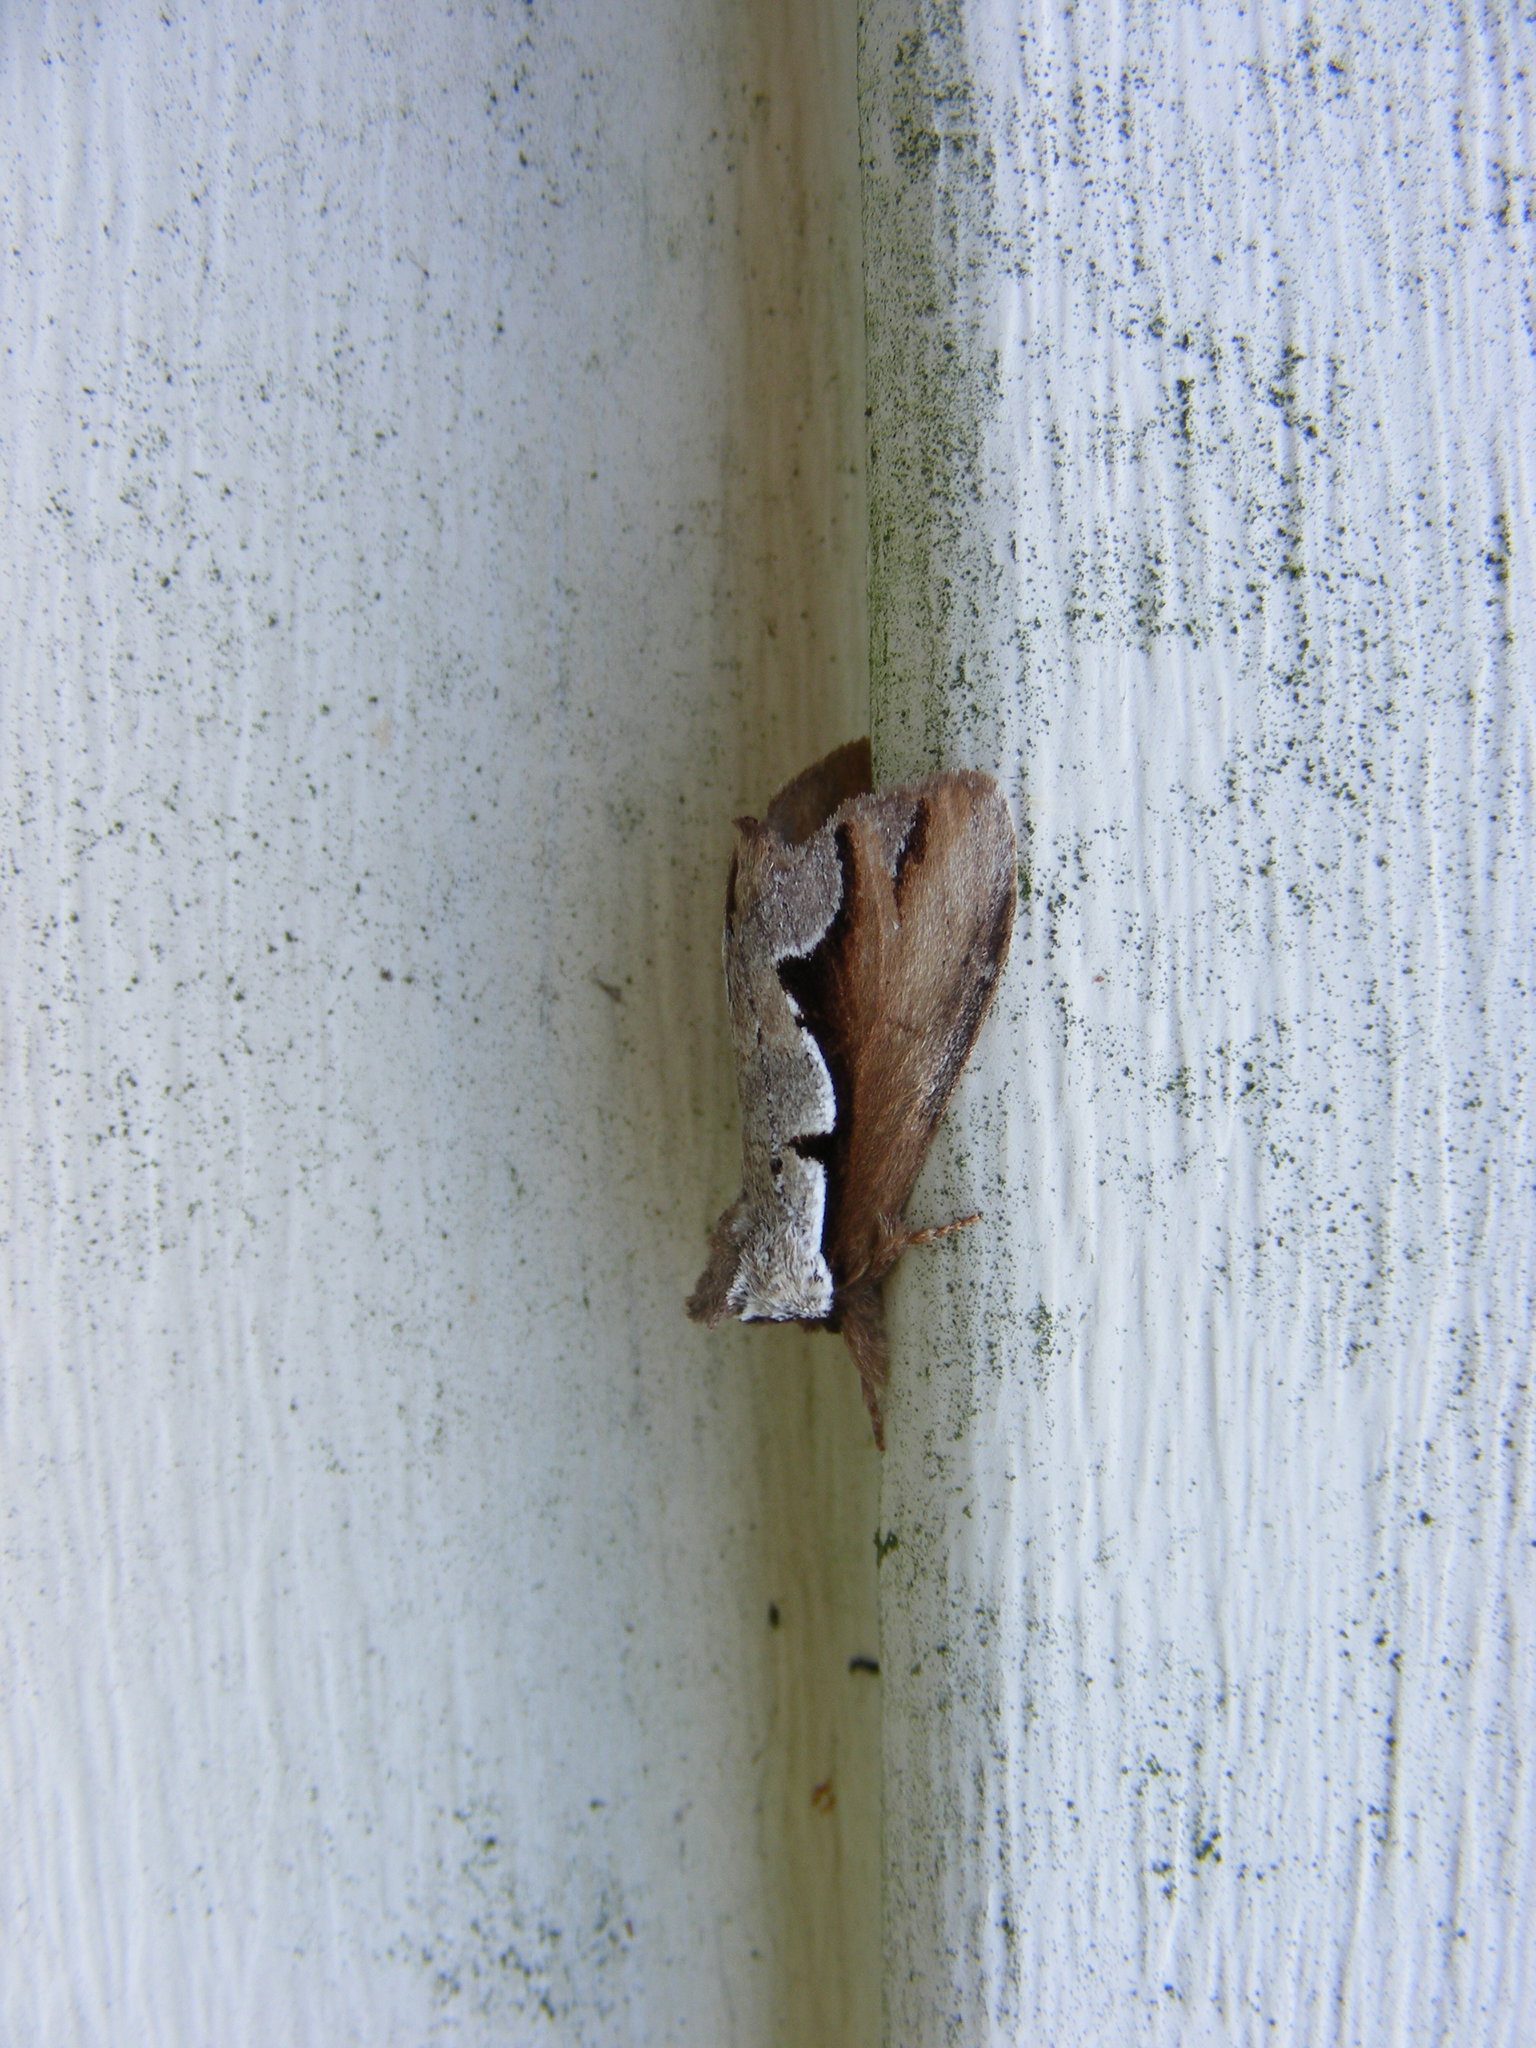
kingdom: Animalia
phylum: Arthropoda
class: Insecta
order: Lepidoptera
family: Notodontidae
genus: Nerice
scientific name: Nerice bidentata
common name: Double-toothed prominent
